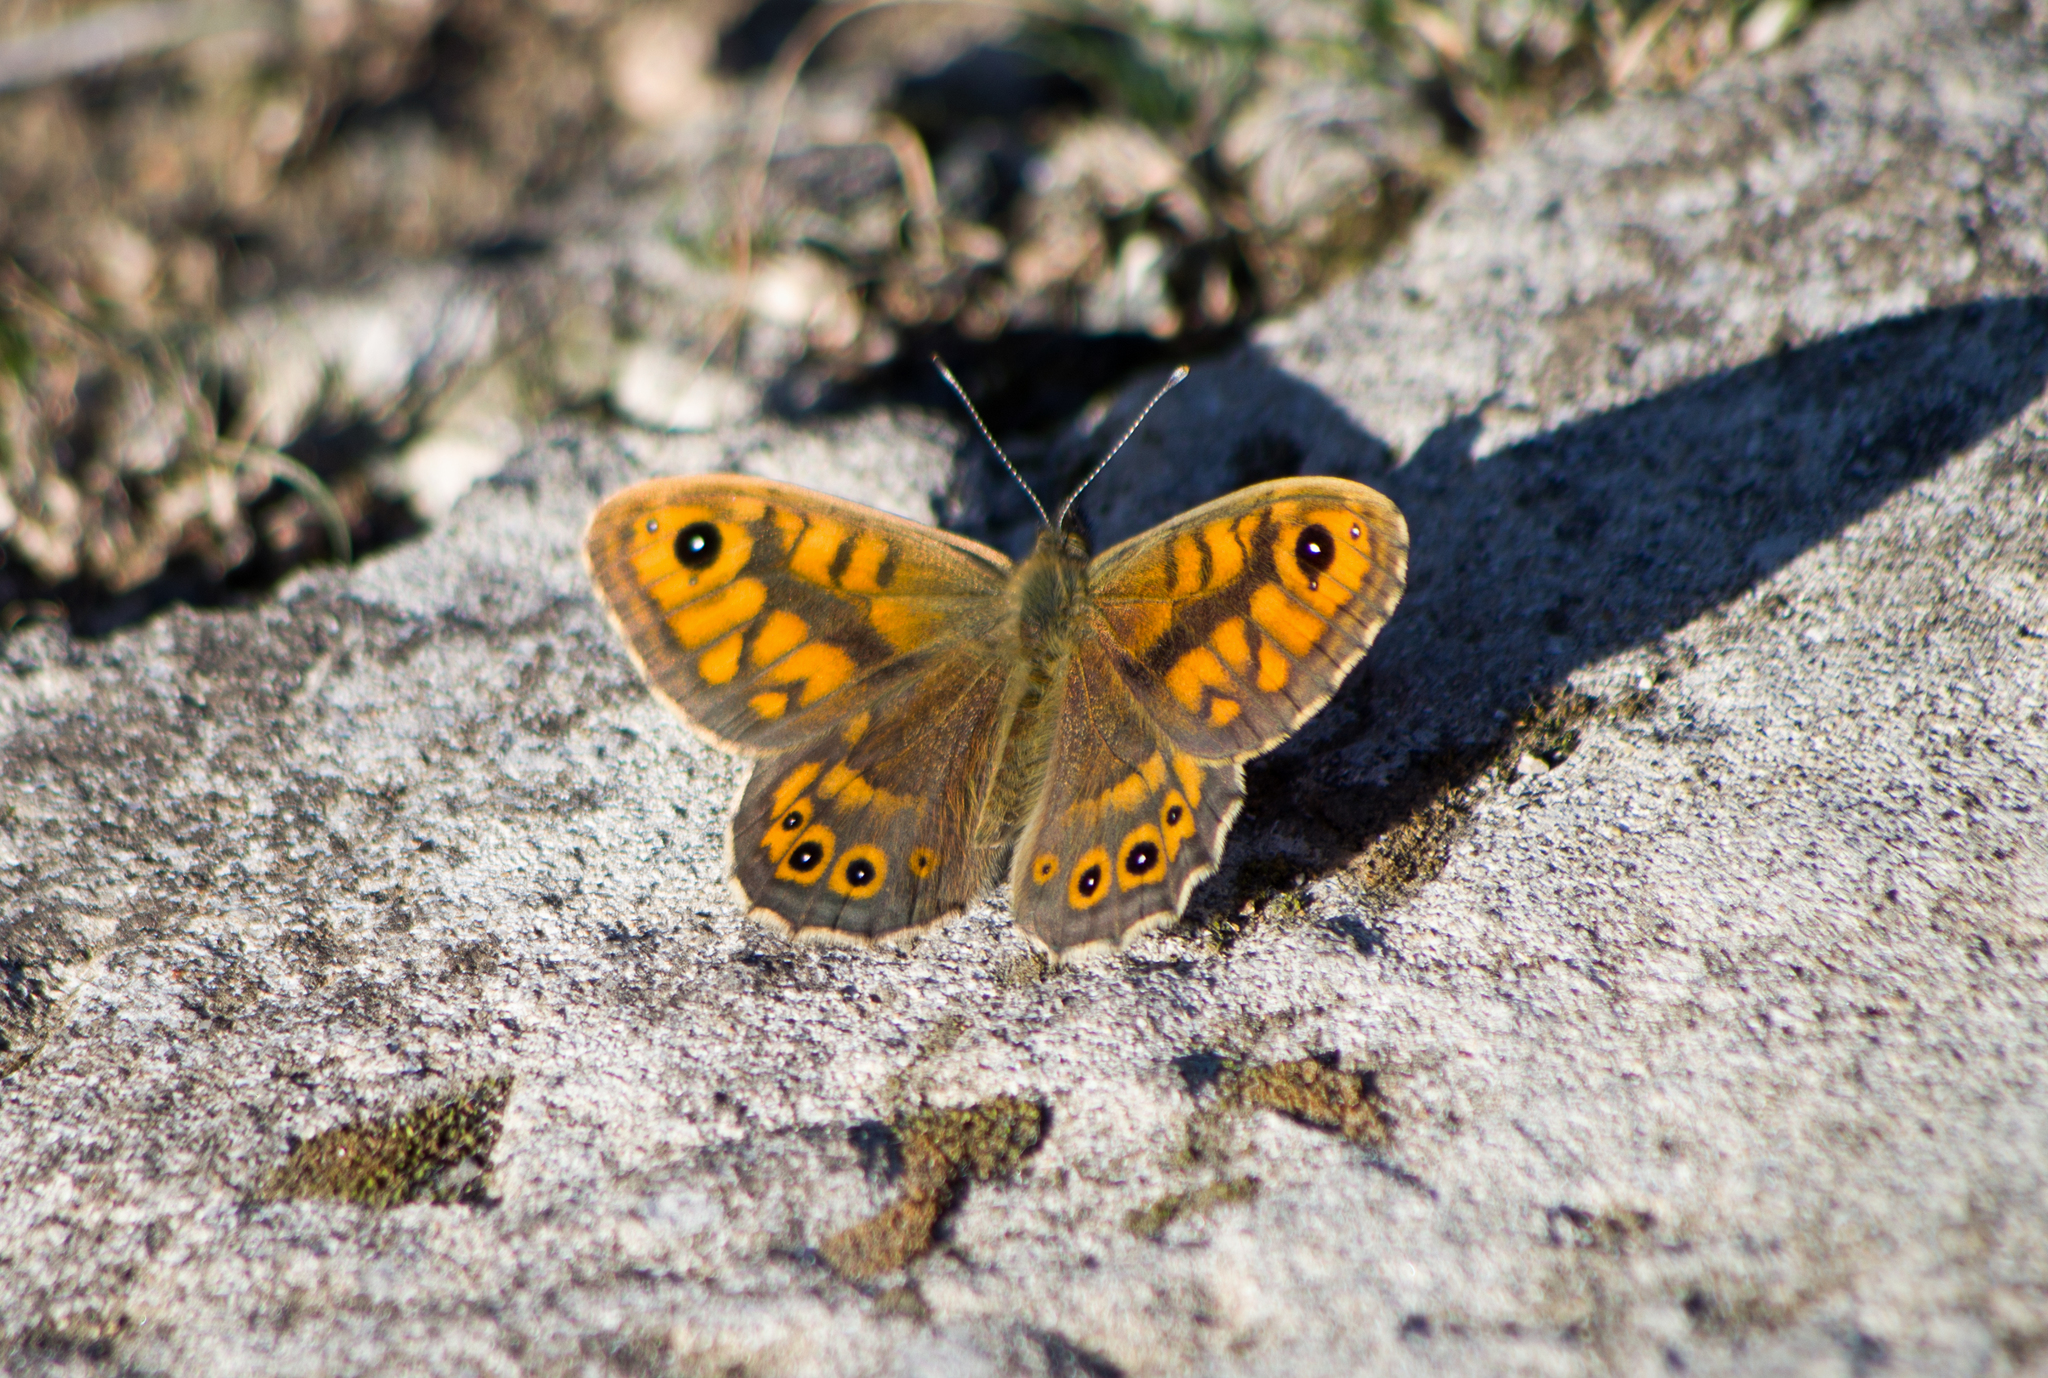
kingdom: Animalia
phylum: Arthropoda
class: Insecta
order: Lepidoptera
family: Nymphalidae
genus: Pararge
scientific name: Pararge Lasiommata megera
